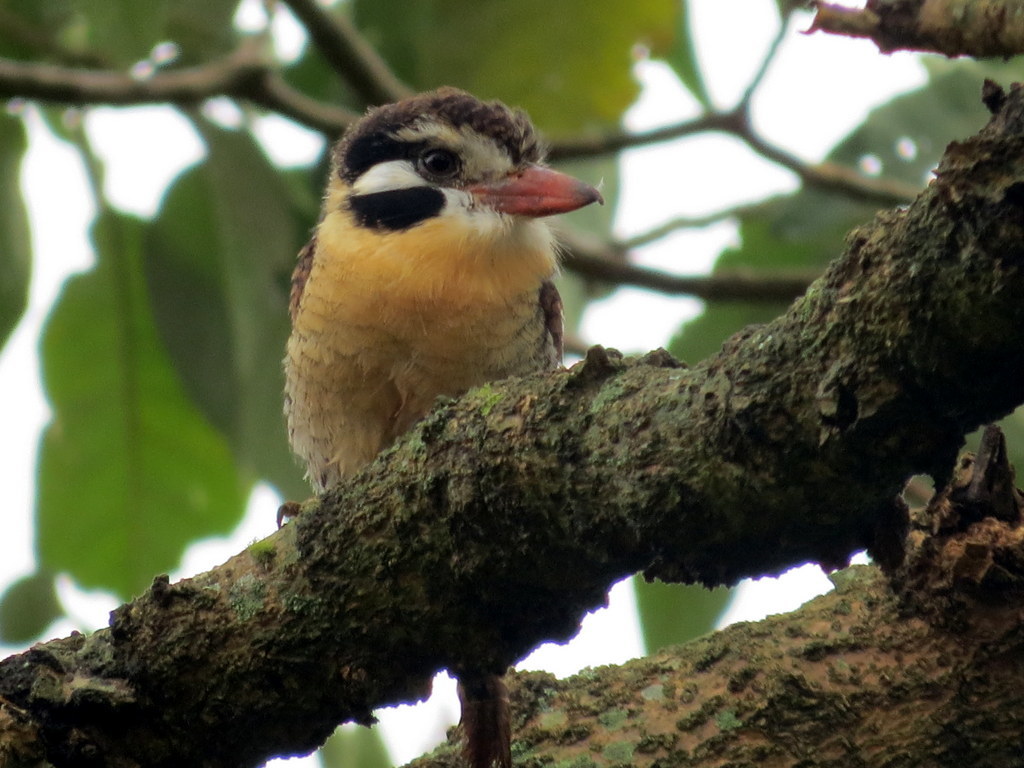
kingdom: Animalia
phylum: Chordata
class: Aves
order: Piciformes
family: Bucconidae
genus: Nystalus
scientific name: Nystalus chacuru
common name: White-eared puffbird
